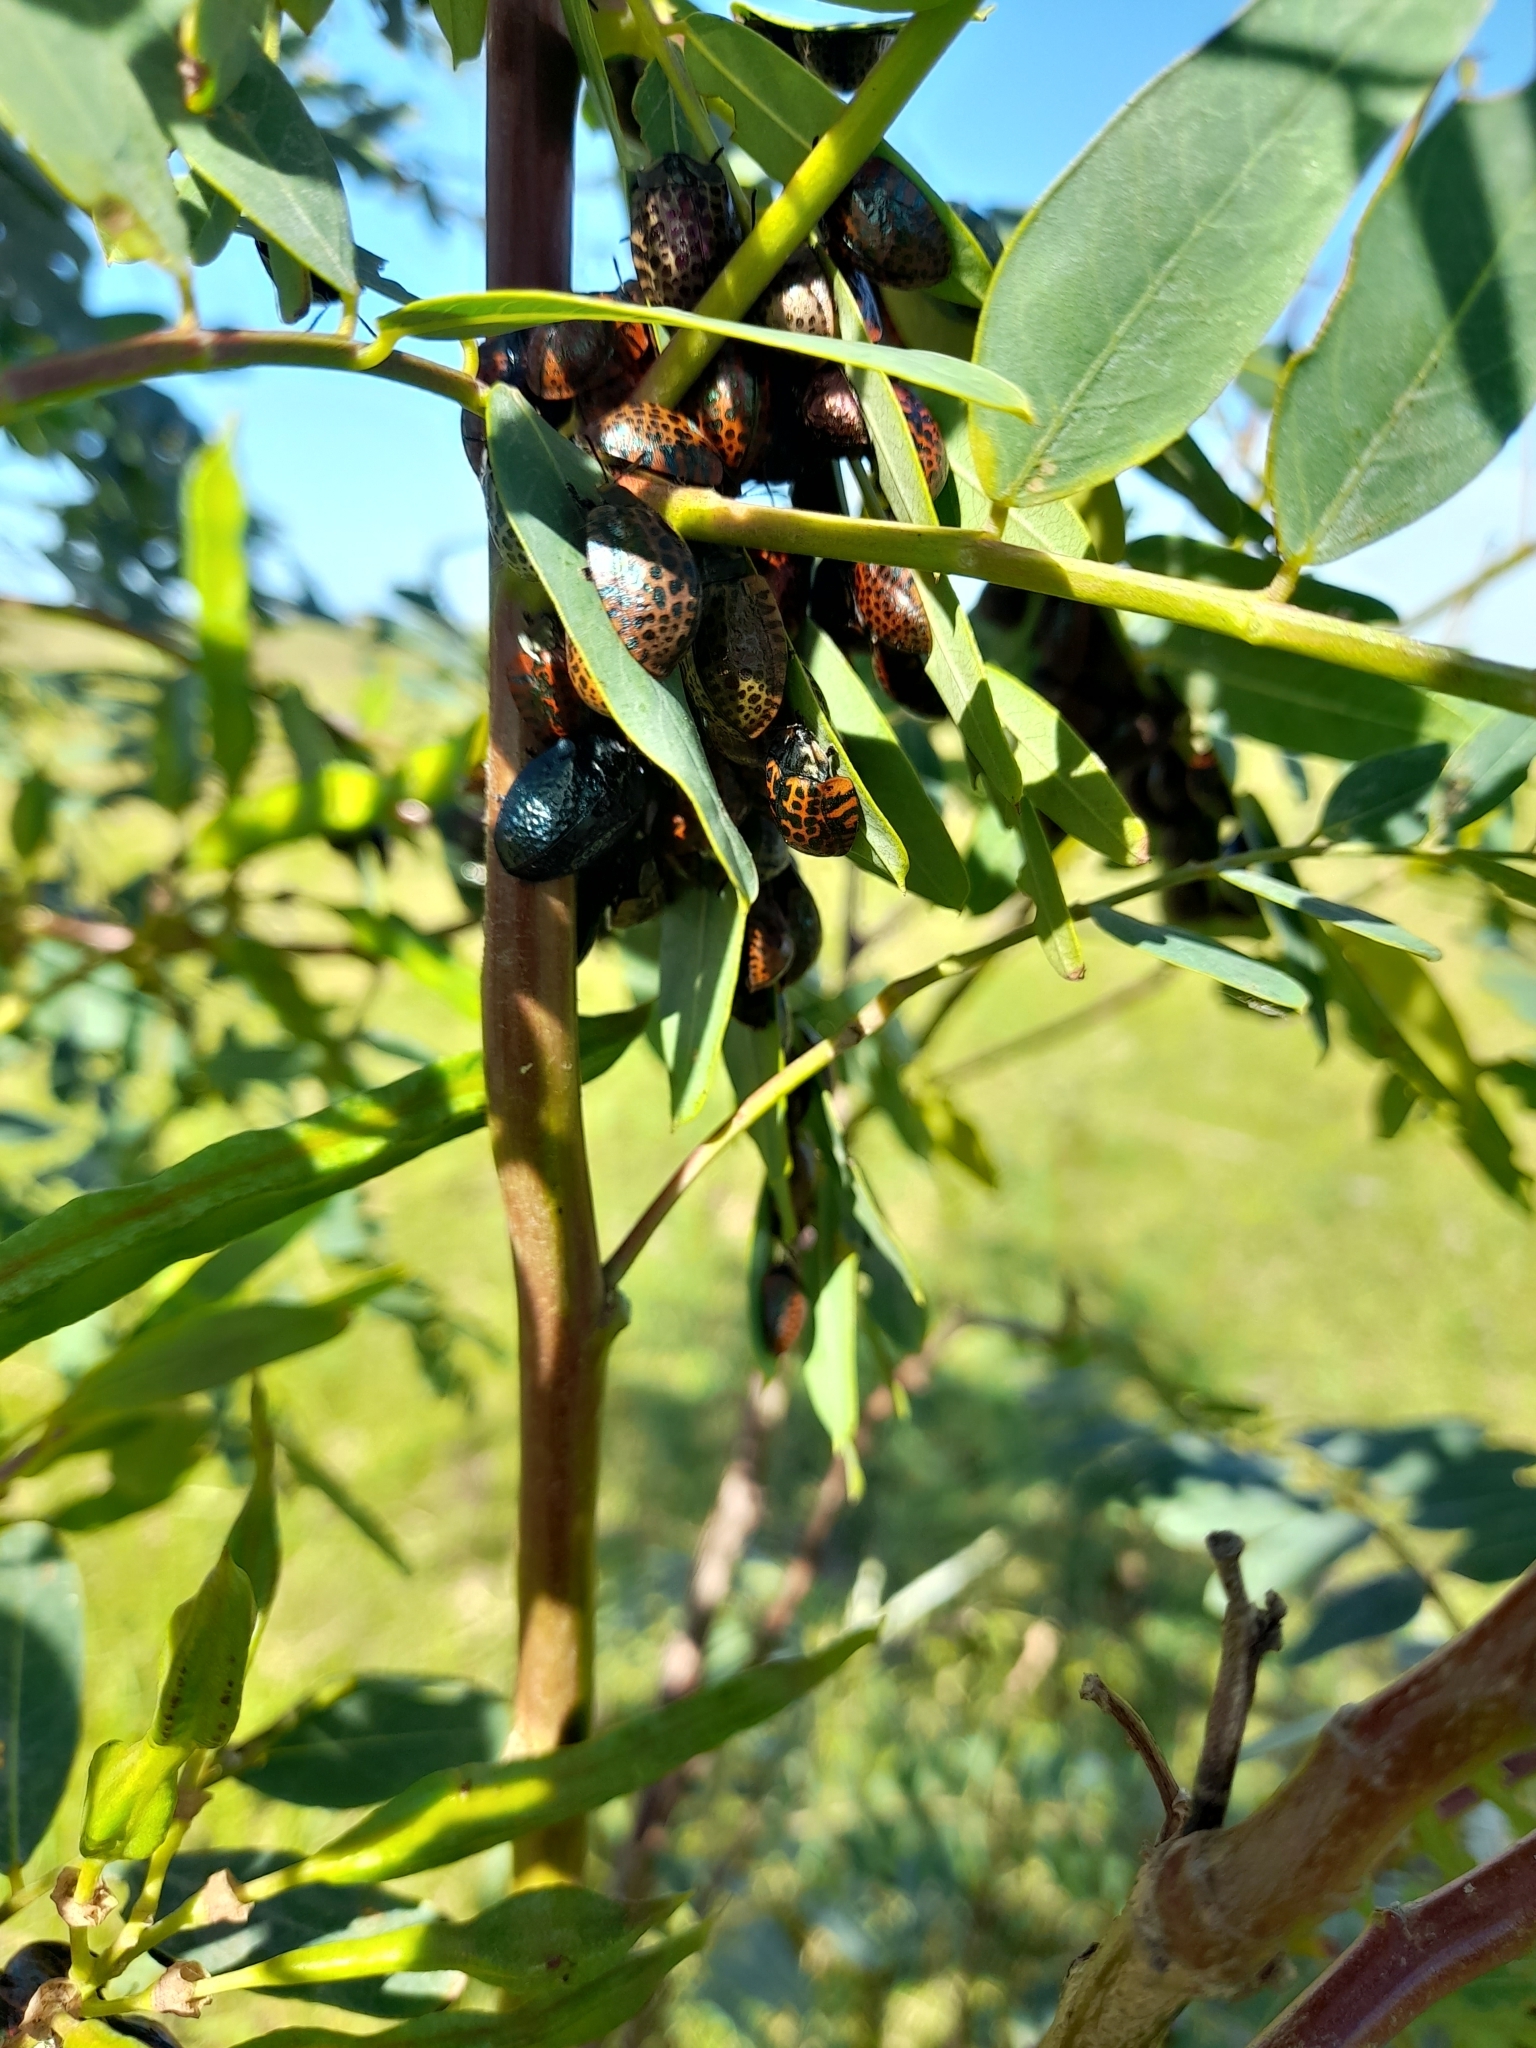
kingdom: Animalia
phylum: Arthropoda
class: Insecta
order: Coleoptera
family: Chrysomelidae
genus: Stolas
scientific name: Stolas lacordairei
